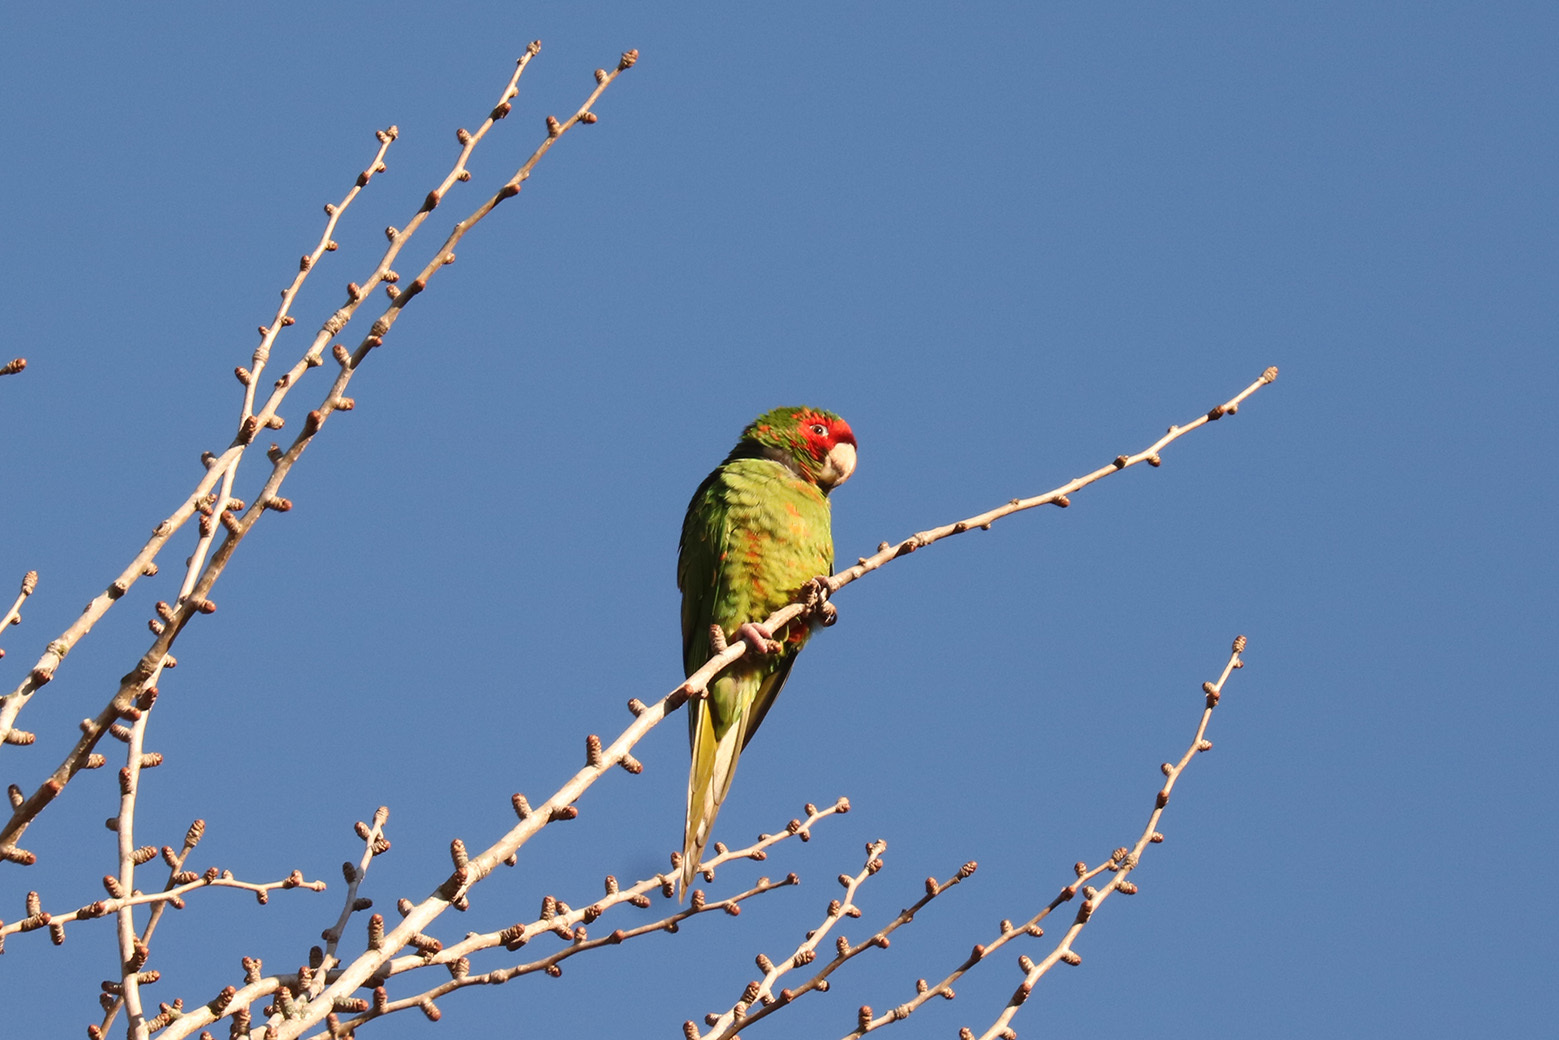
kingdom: Animalia
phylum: Chordata
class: Aves
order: Psittaciformes
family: Psittacidae
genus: Aratinga
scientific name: Aratinga mitrata
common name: Mitred parakeet
